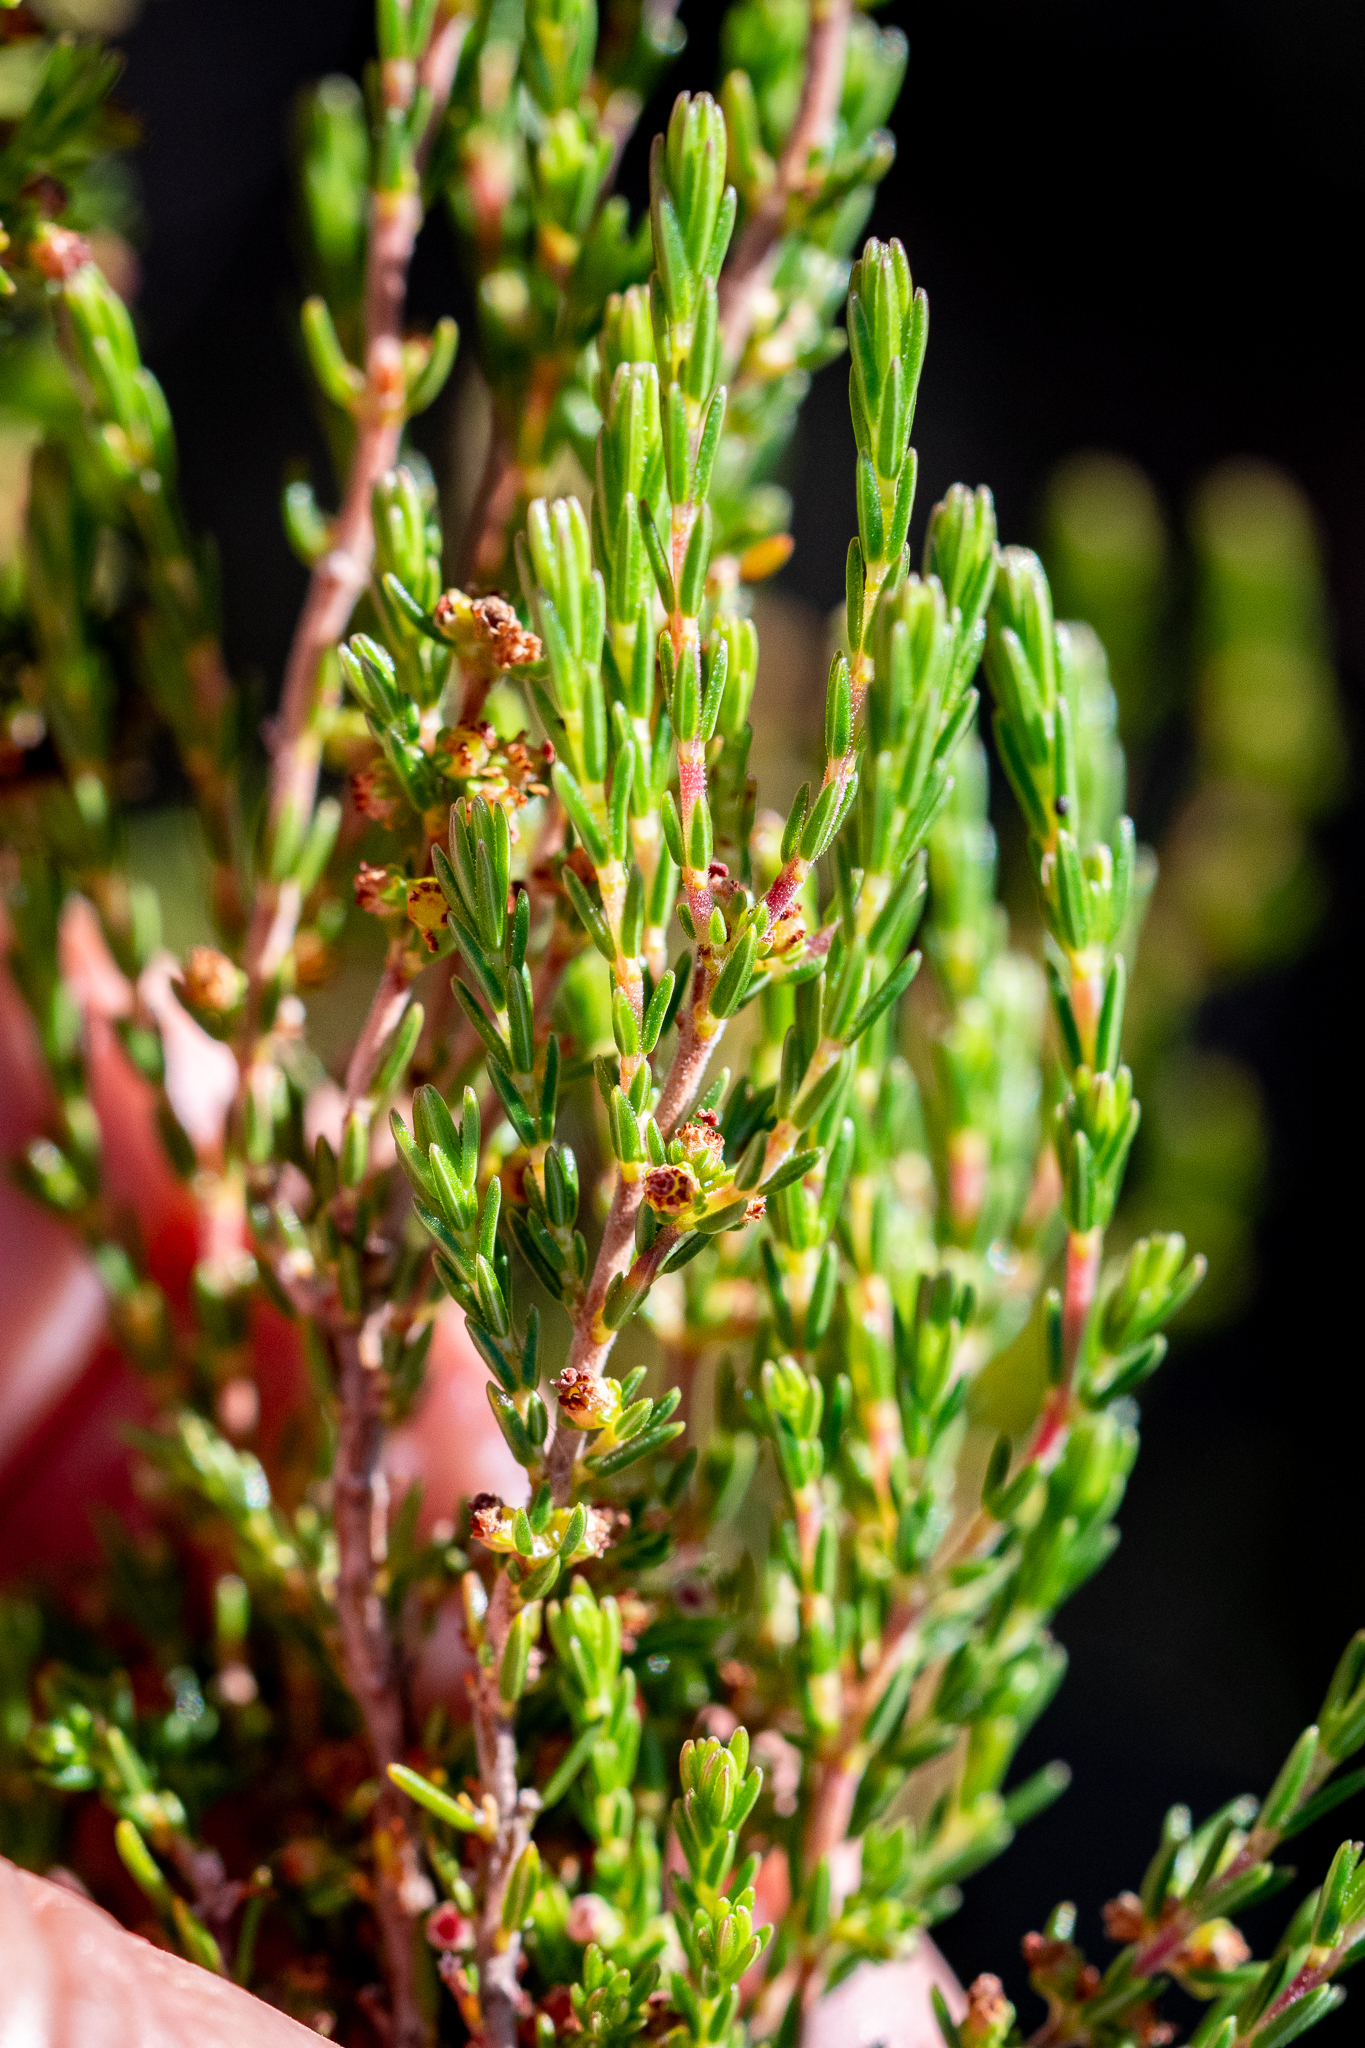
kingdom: Plantae
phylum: Tracheophyta
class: Magnoliopsida
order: Ericales
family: Ericaceae
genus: Erica
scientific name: Erica axillaris
